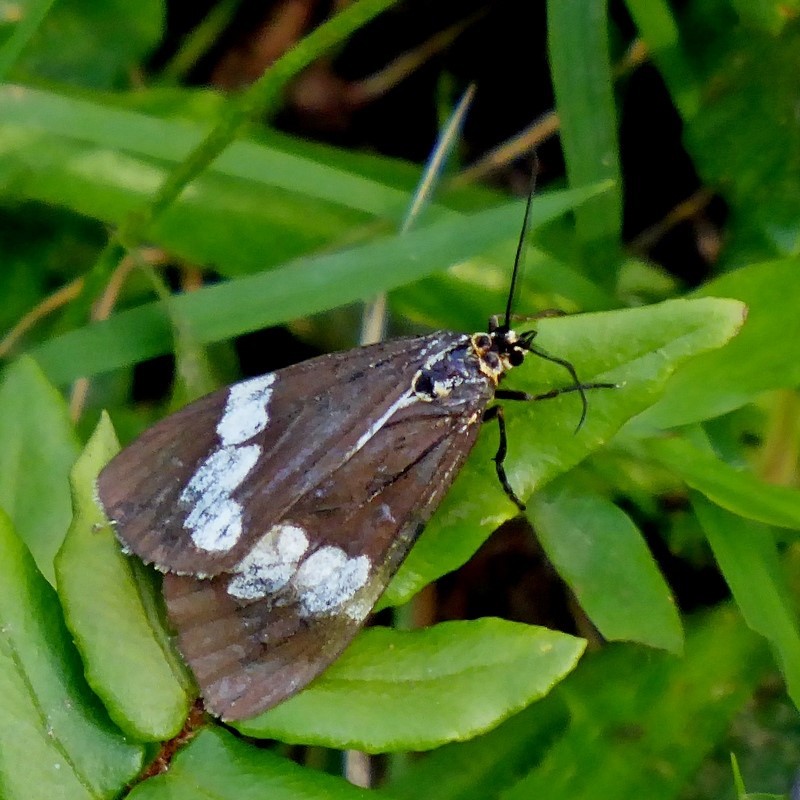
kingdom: Animalia
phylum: Arthropoda
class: Insecta
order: Lepidoptera
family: Erebidae
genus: Nyctemera
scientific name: Nyctemera amicus
